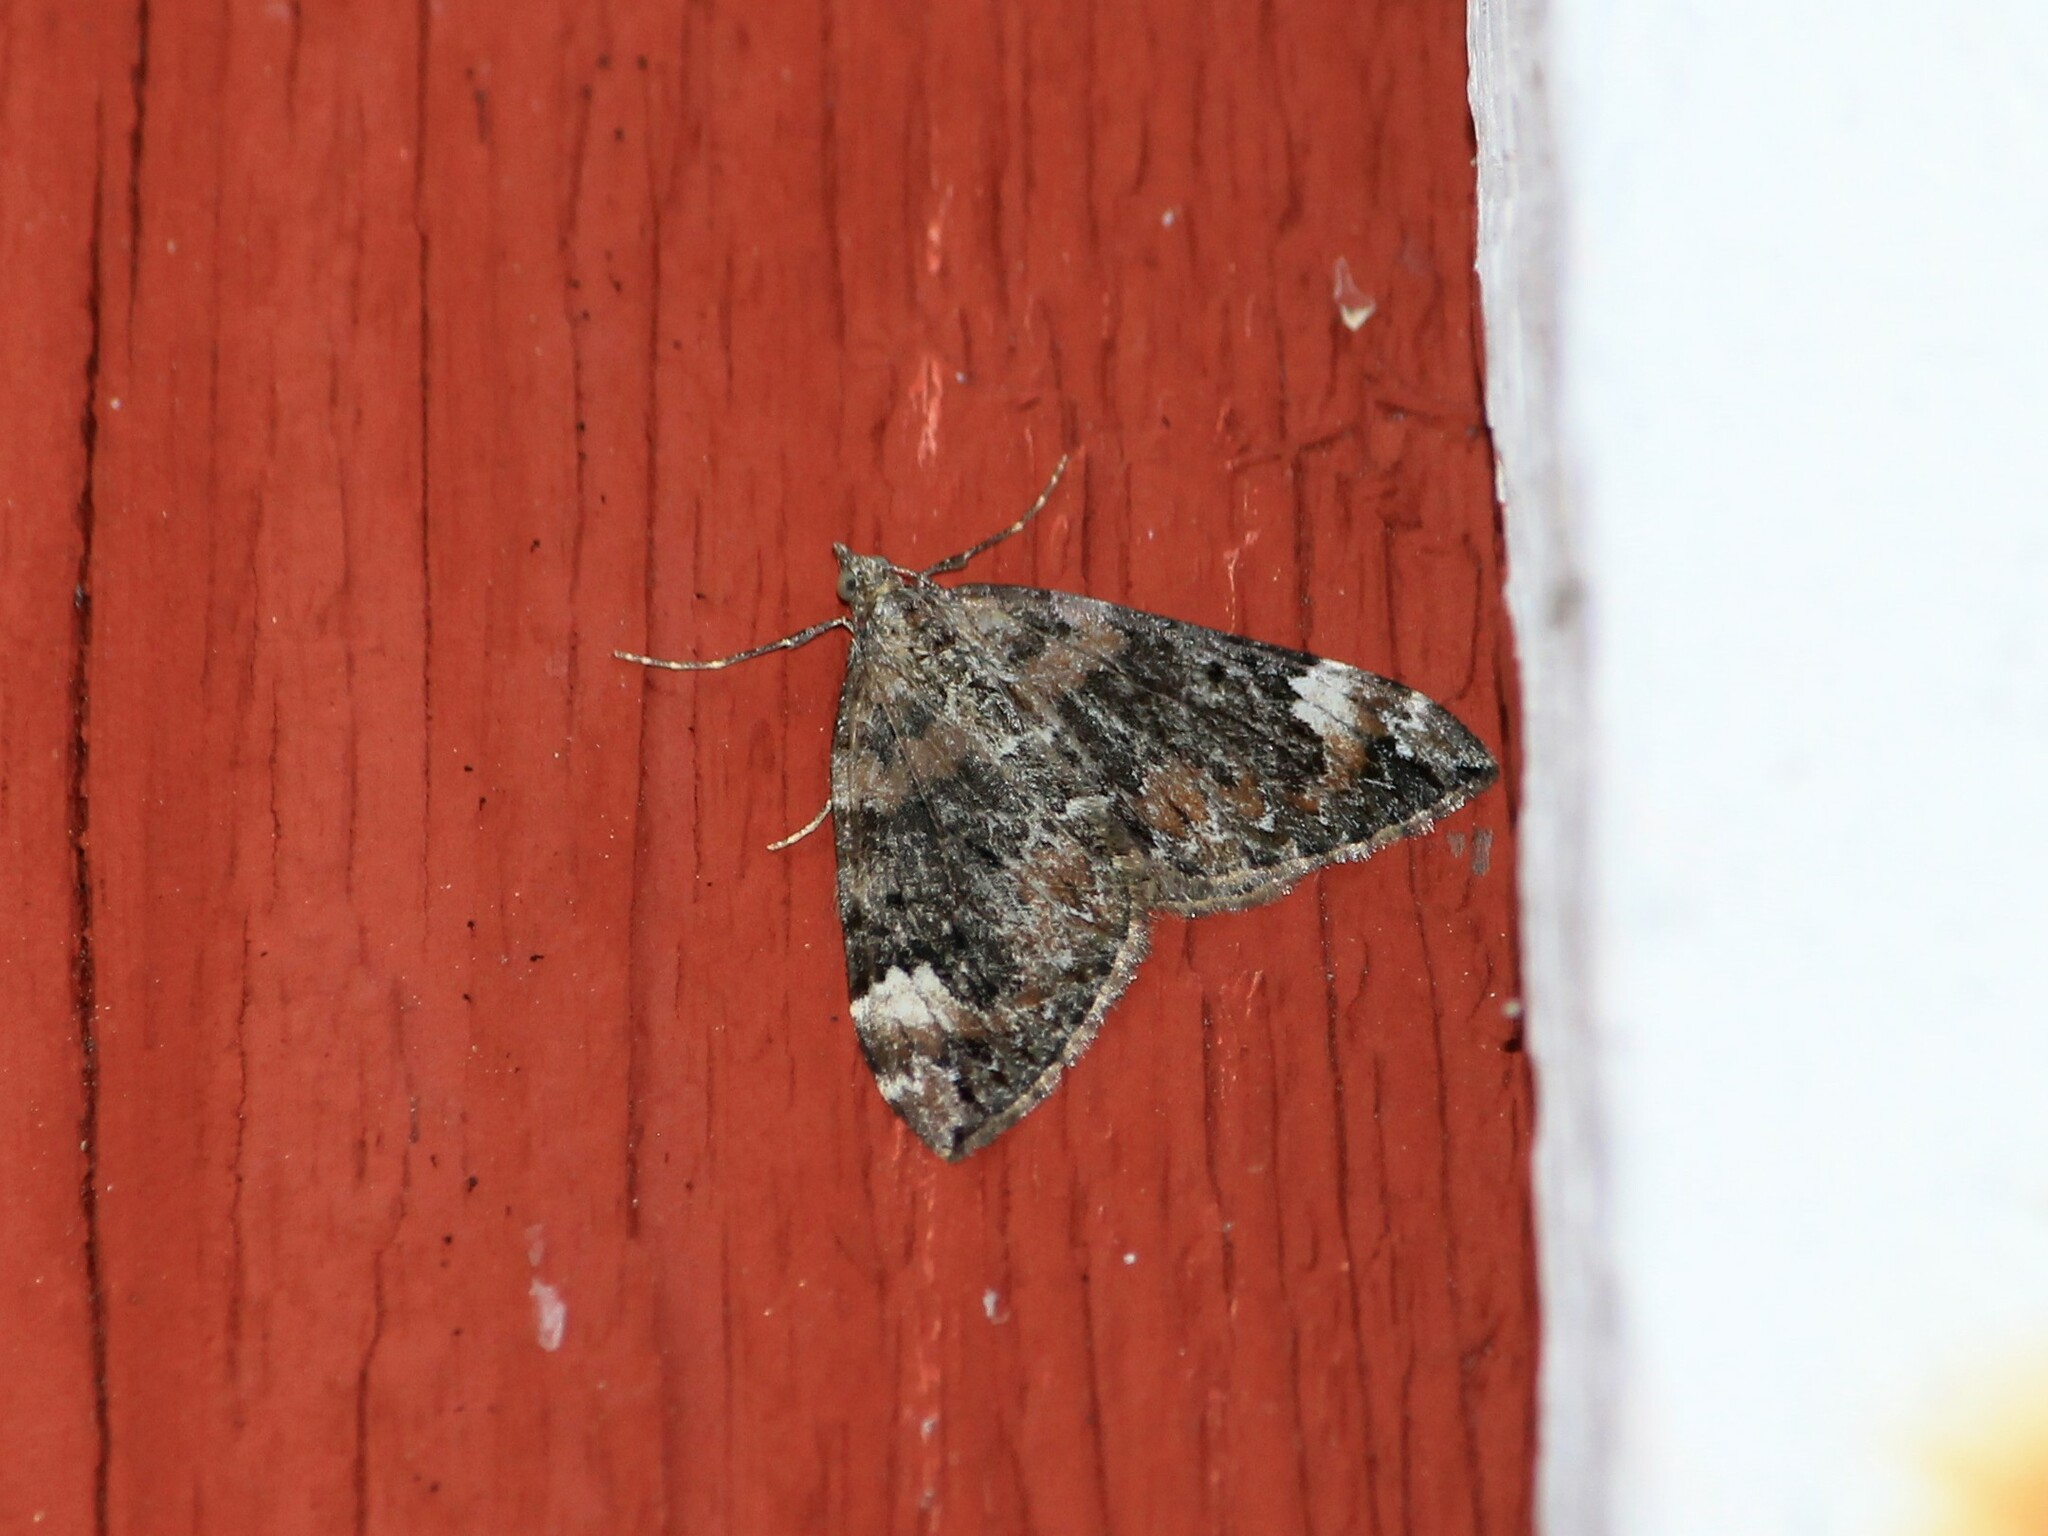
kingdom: Animalia
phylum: Arthropoda
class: Insecta
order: Lepidoptera
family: Geometridae
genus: Dysstroma
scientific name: Dysstroma citrata
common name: Dark marbled carpet
